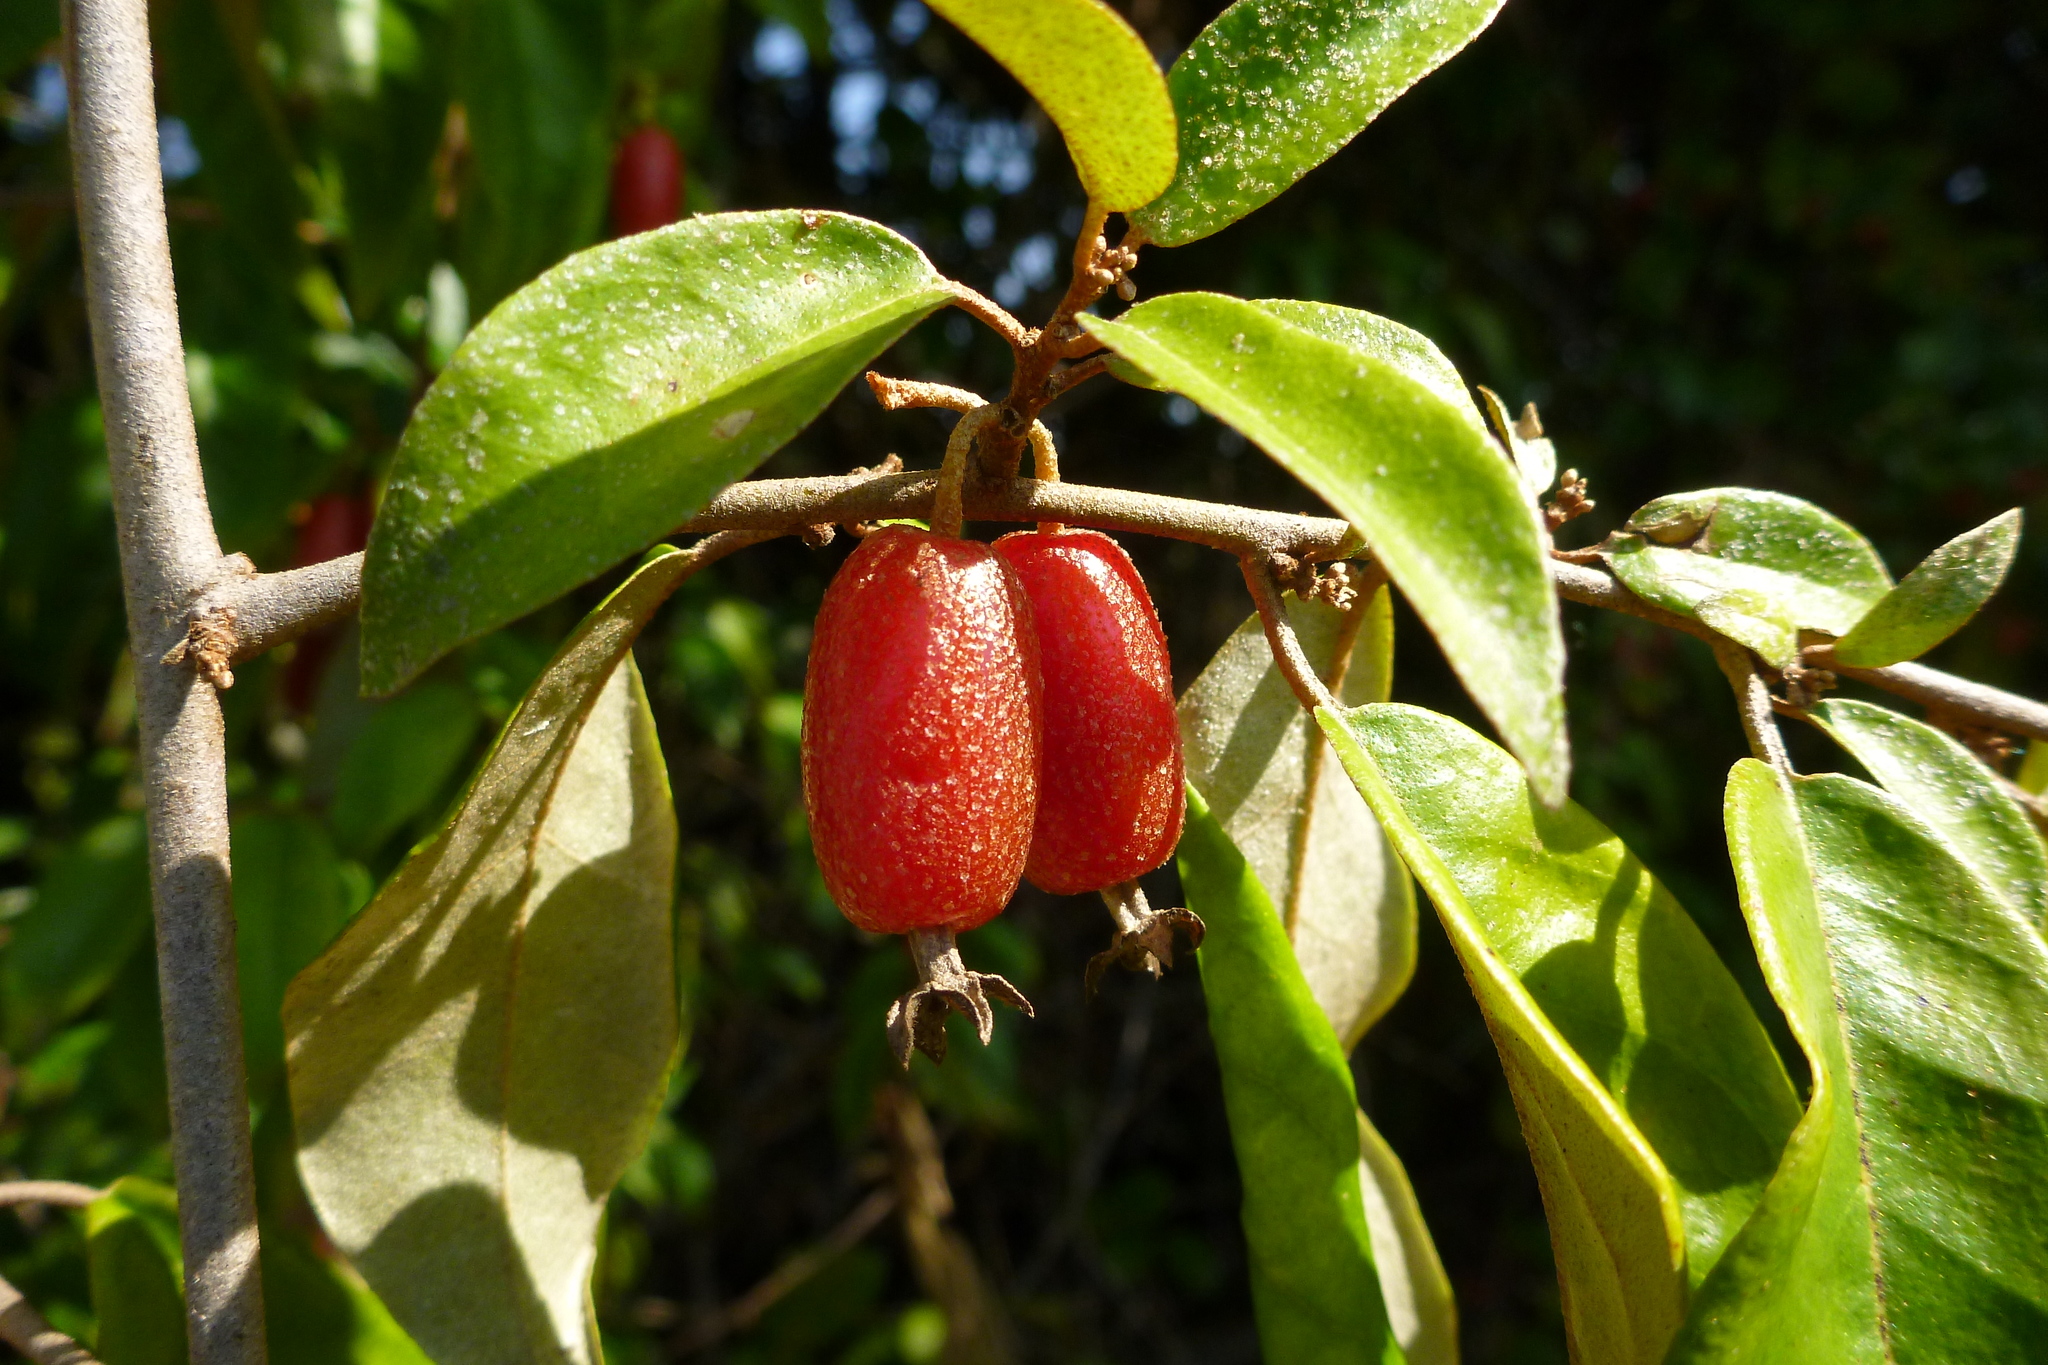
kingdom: Plantae
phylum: Tracheophyta
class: Magnoliopsida
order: Rosales
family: Elaeagnaceae
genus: Elaeagnus
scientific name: Elaeagnus triflora
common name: Millaa millaa-vine
